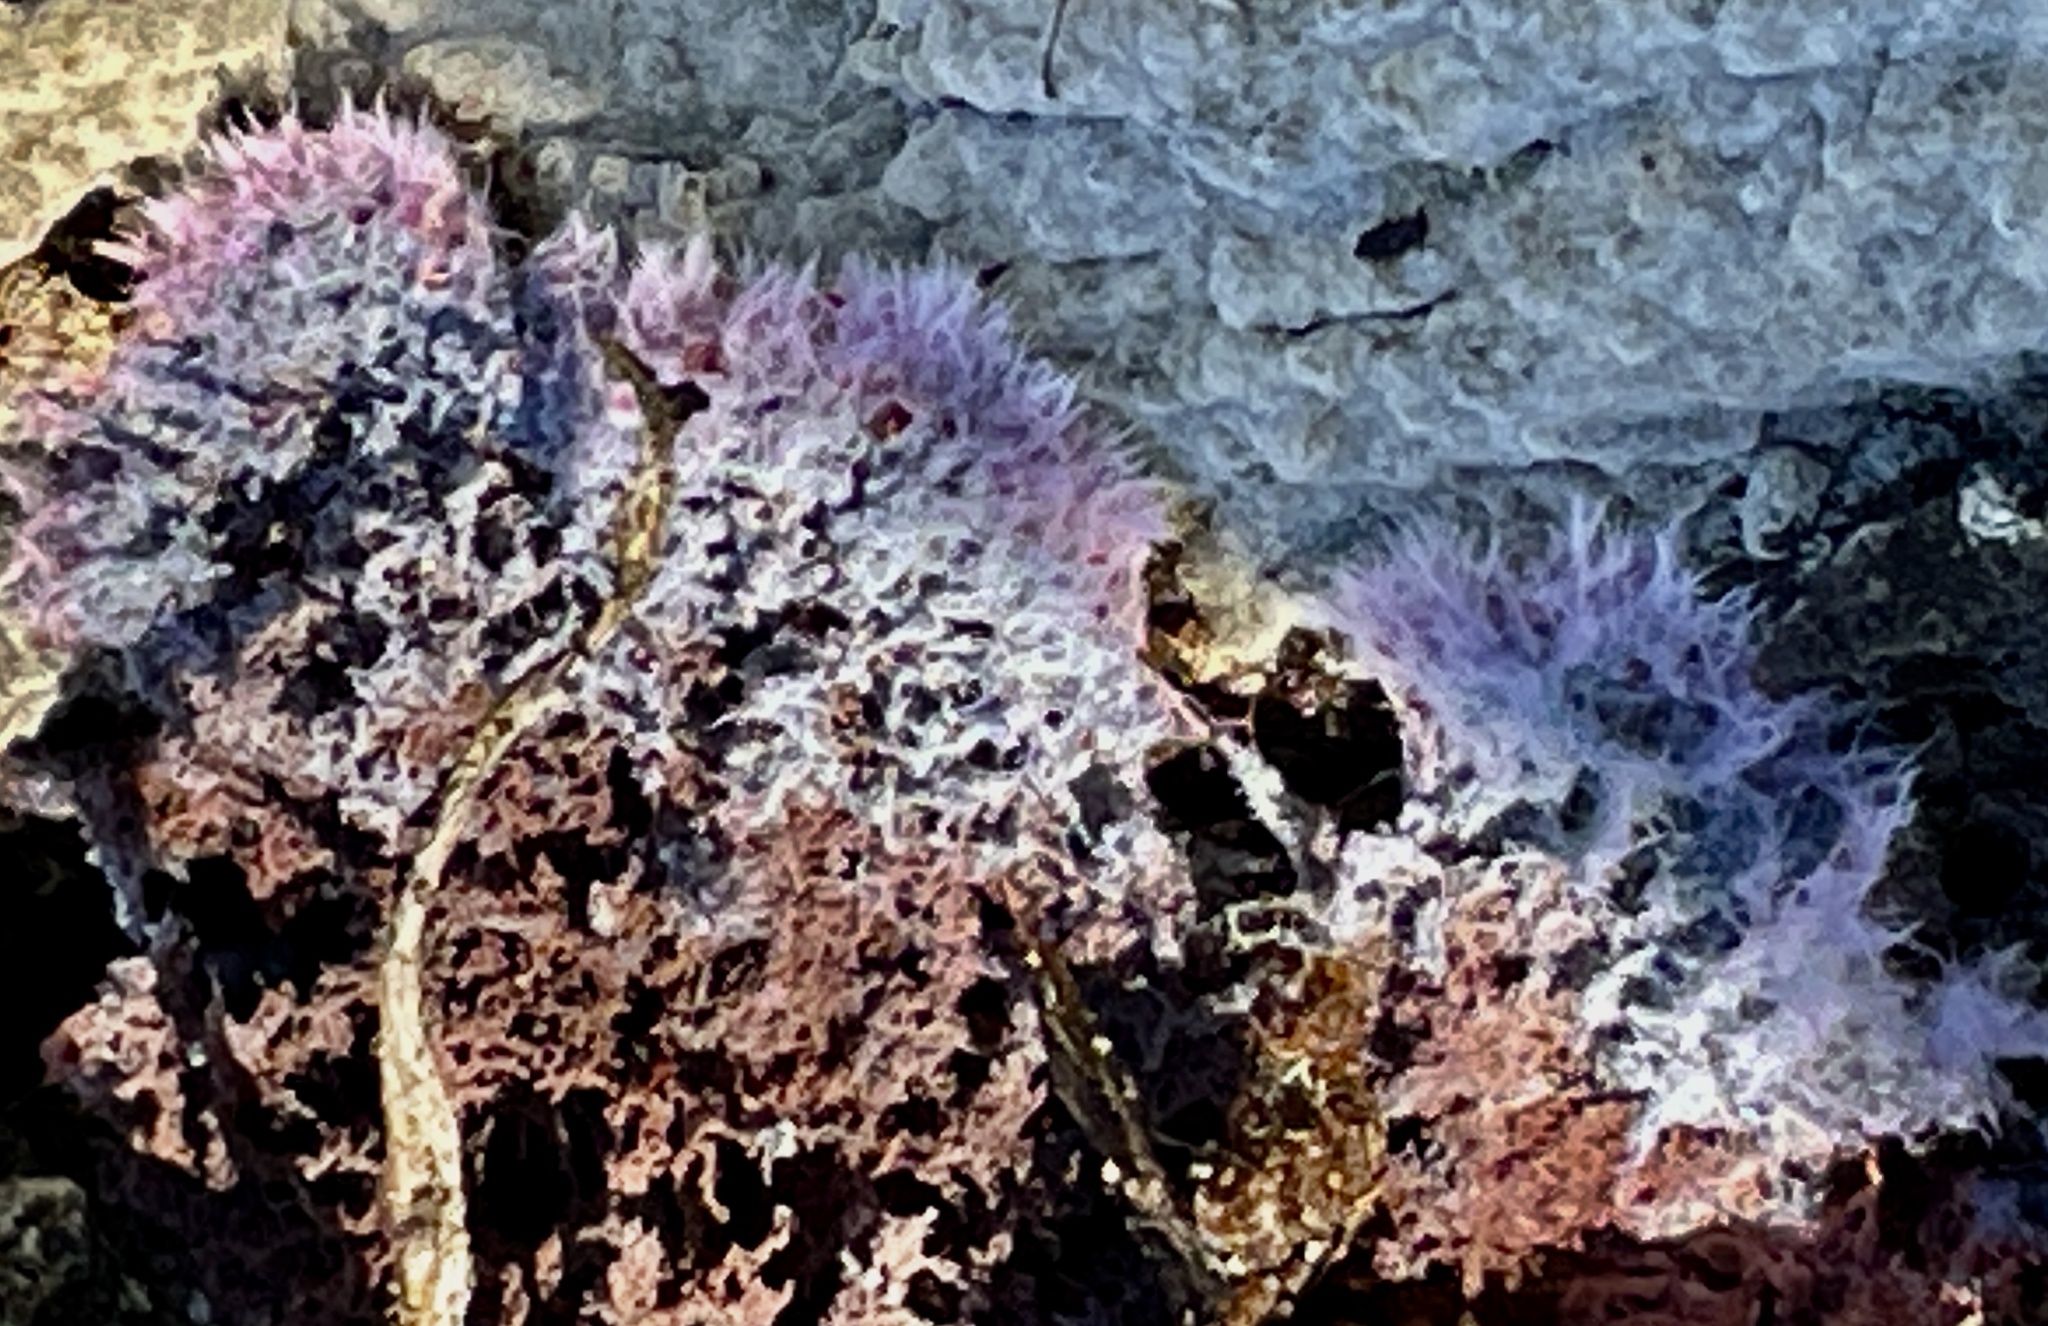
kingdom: Fungi
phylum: Basidiomycota
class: Agaricomycetes
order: Corticiales
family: Punctulariaceae
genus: Punctularia
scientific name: Punctularia atropurpurascens
